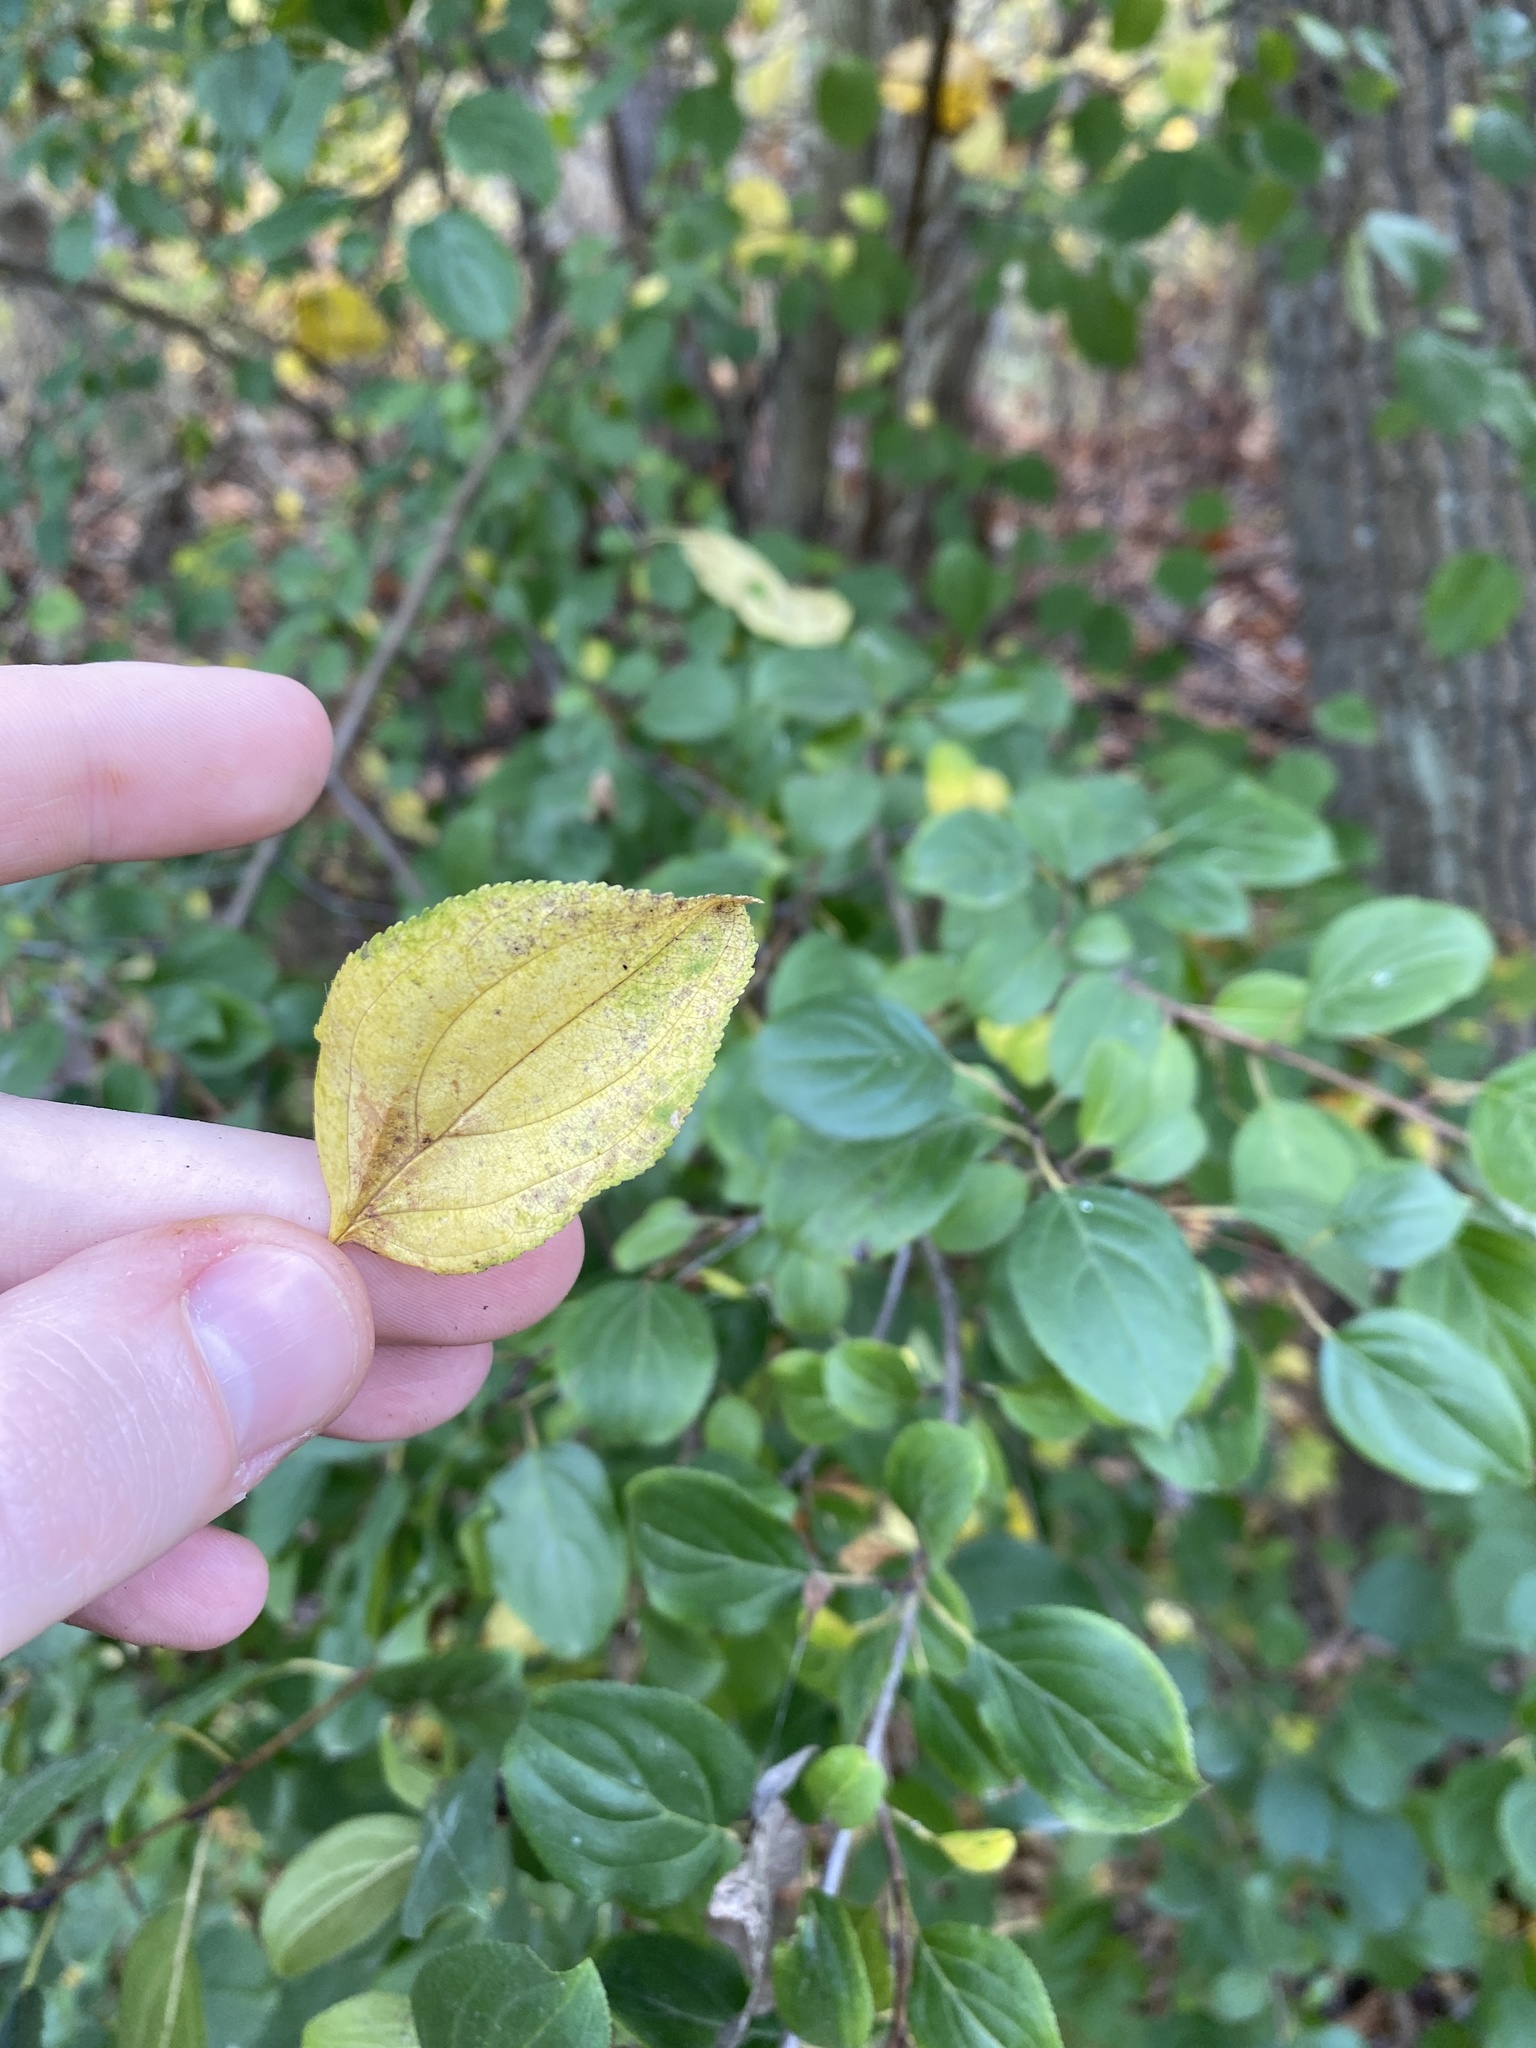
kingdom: Plantae
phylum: Tracheophyta
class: Magnoliopsida
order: Rosales
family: Rhamnaceae
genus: Rhamnus
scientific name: Rhamnus cathartica
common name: Common buckthorn
